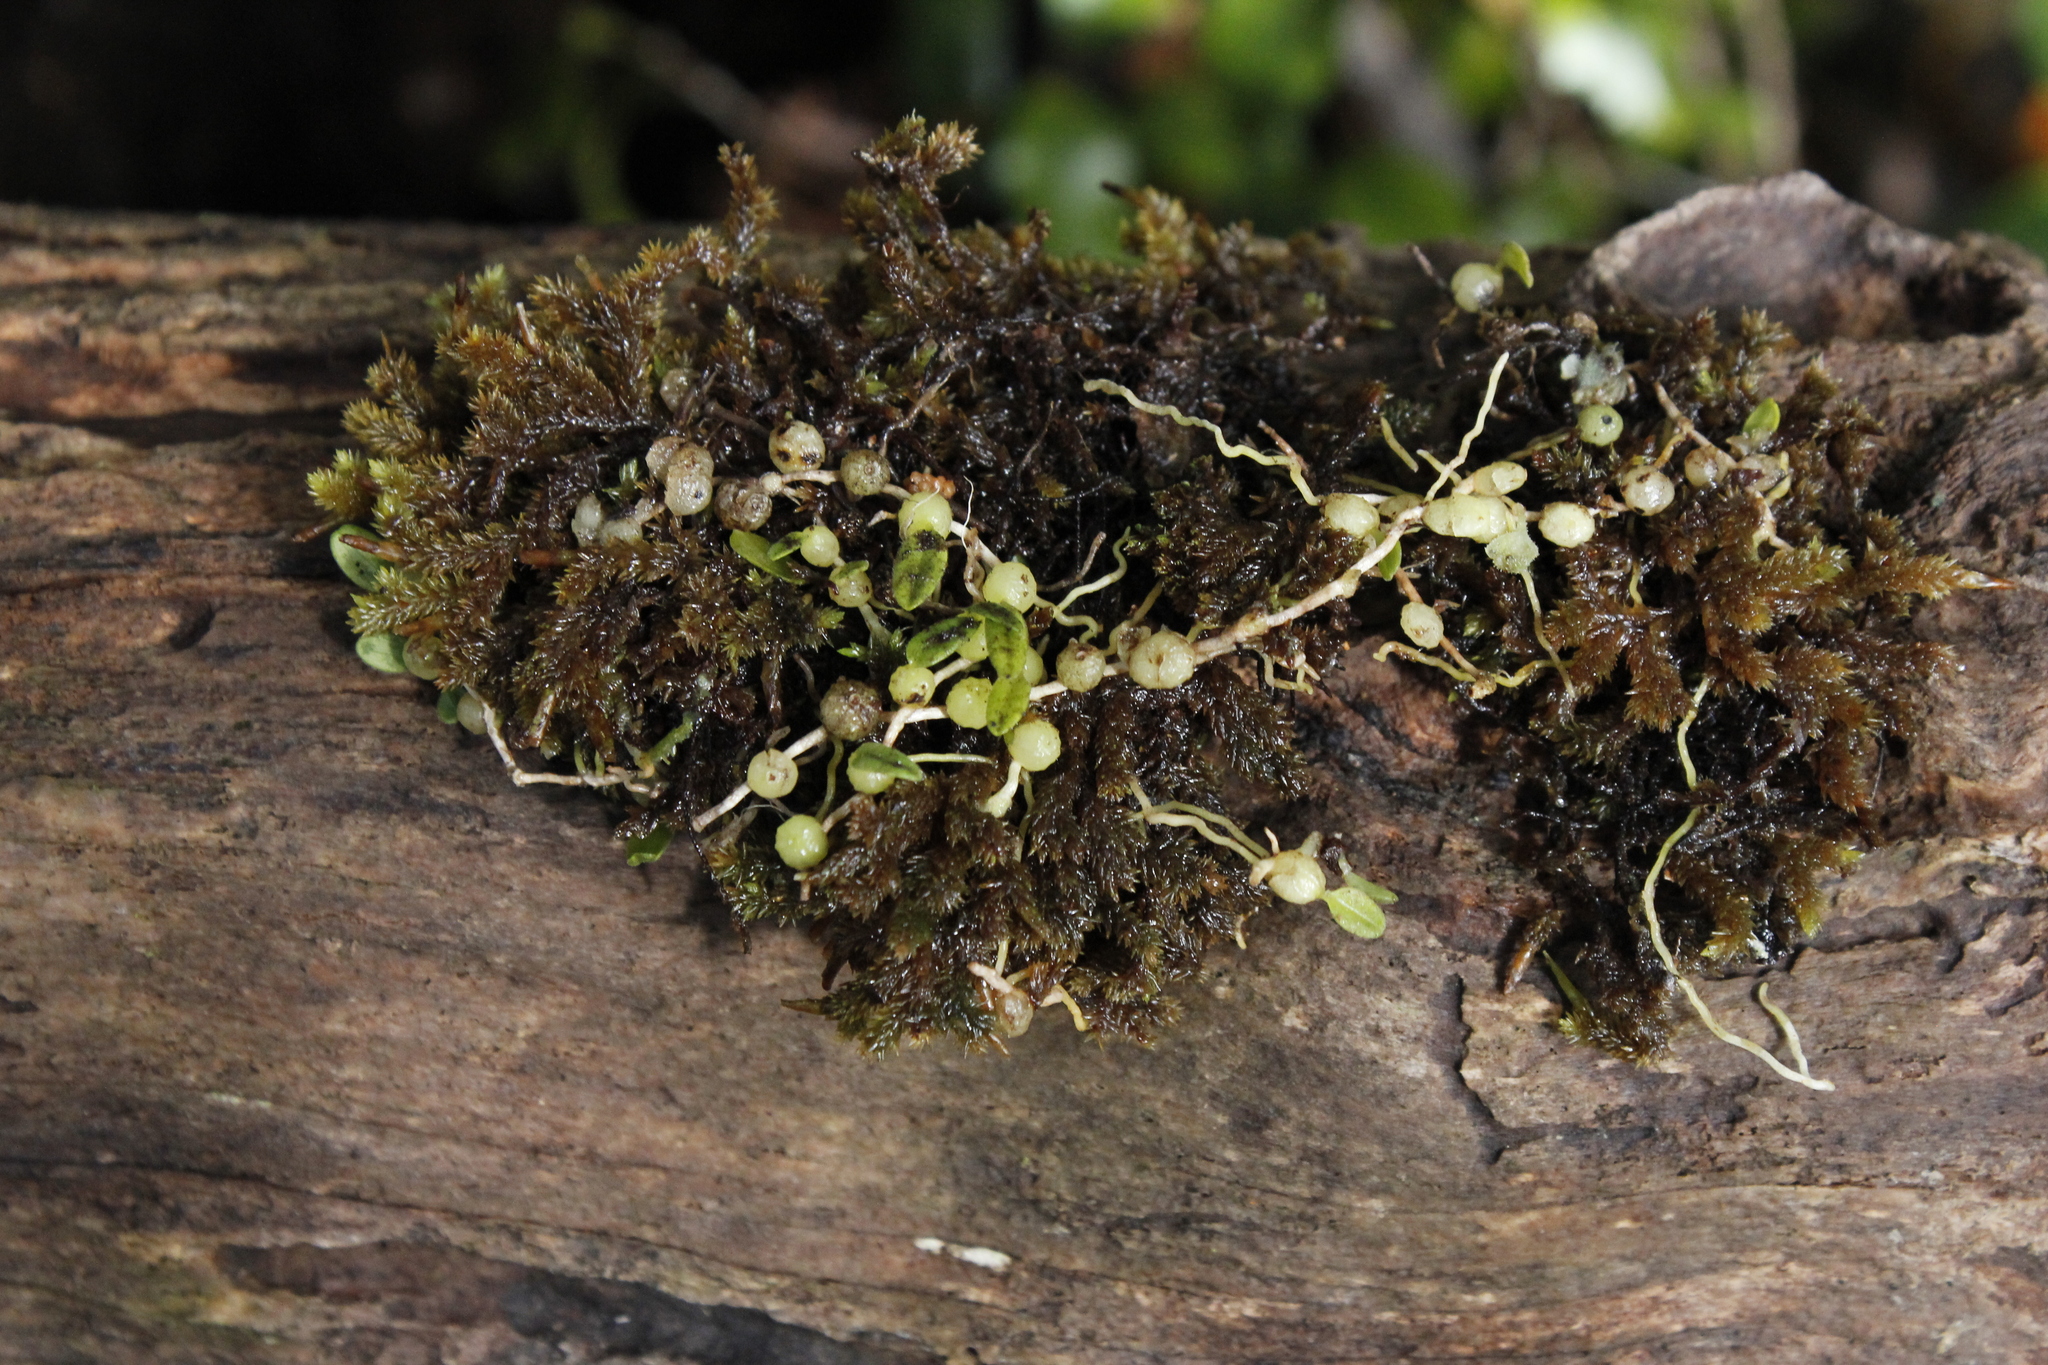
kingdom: Plantae
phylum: Tracheophyta
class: Liliopsida
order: Asparagales
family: Orchidaceae
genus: Bulbophyllum
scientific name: Bulbophyllum pygmaeum
